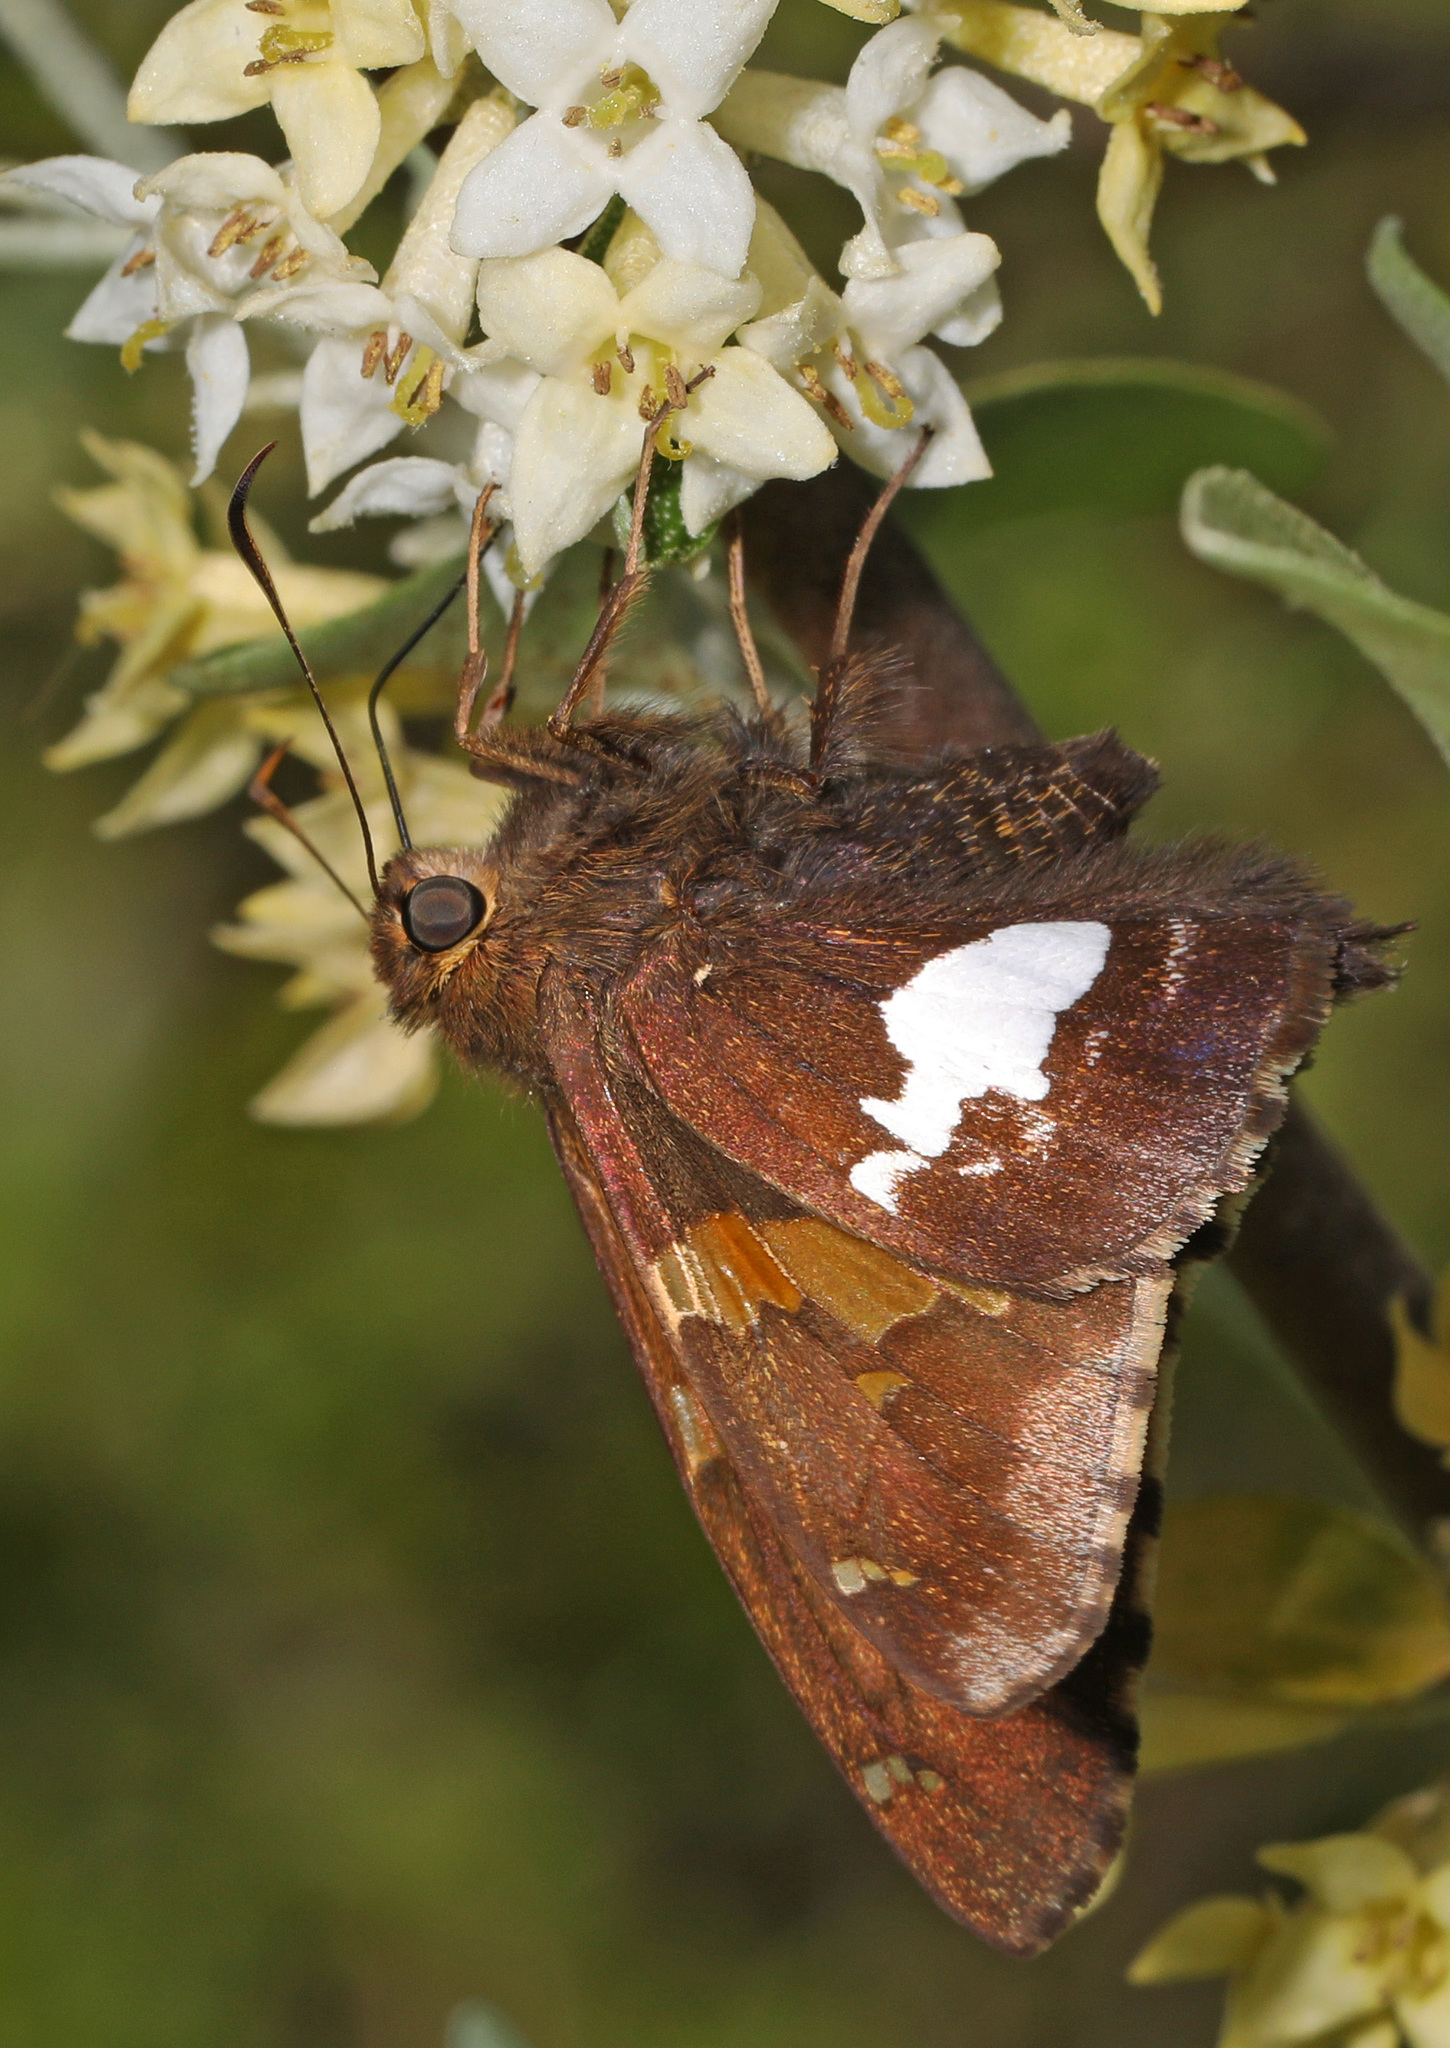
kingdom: Animalia
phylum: Arthropoda
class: Insecta
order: Lepidoptera
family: Hesperiidae
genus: Epargyreus
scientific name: Epargyreus clarus
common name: Silver-spotted skipper
